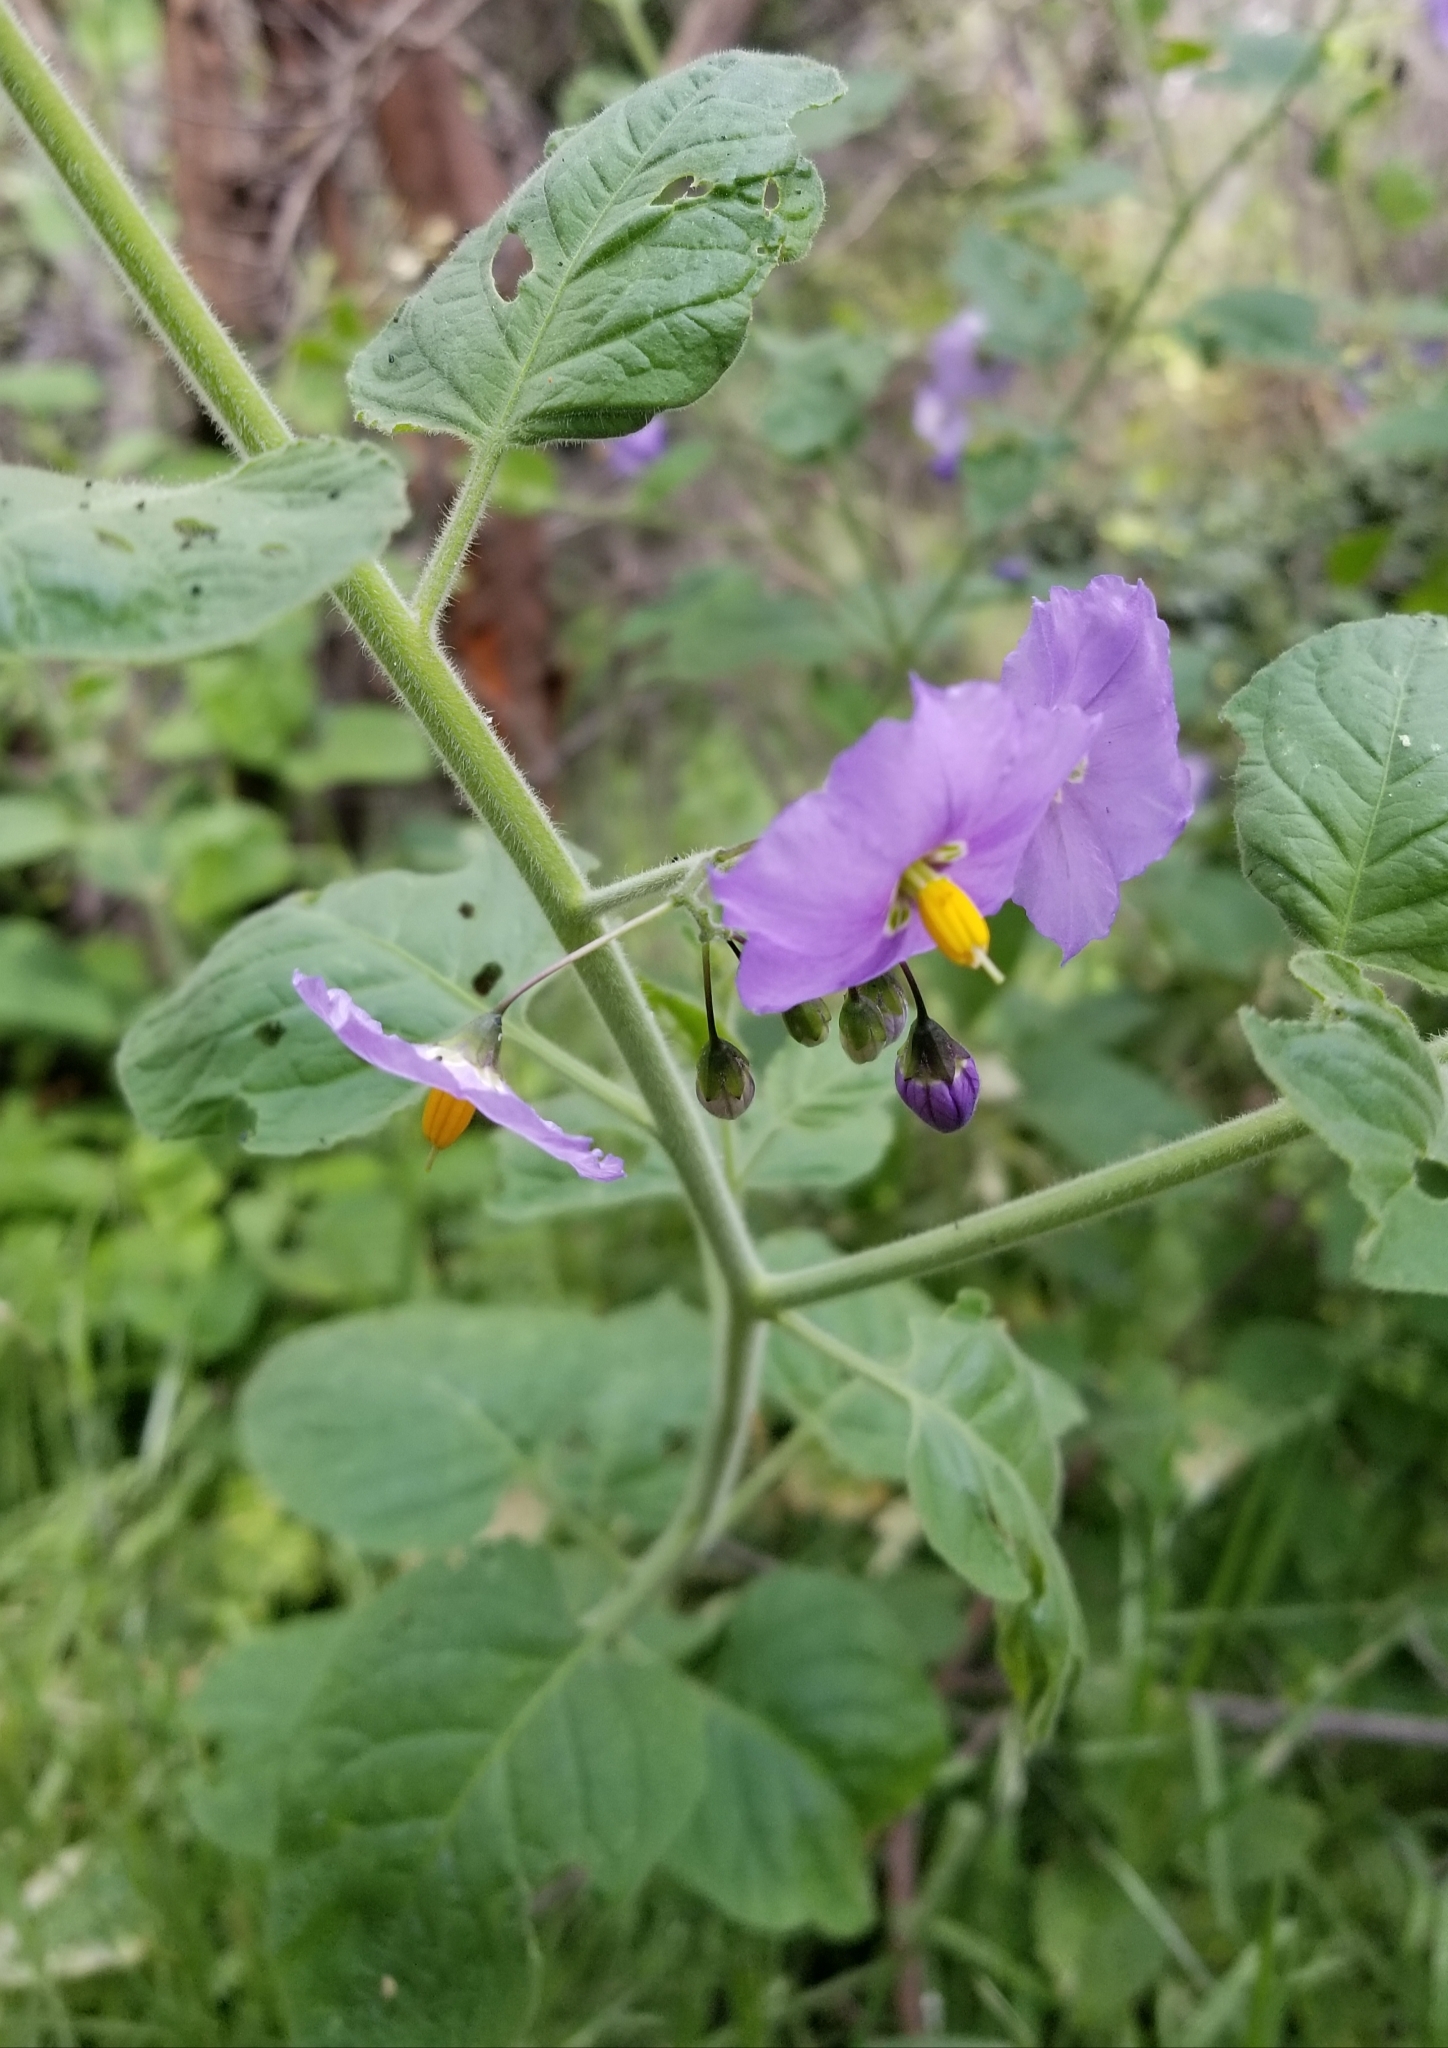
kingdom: Plantae
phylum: Tracheophyta
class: Magnoliopsida
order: Solanales
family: Solanaceae
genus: Solanum
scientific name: Solanum umbelliferum
